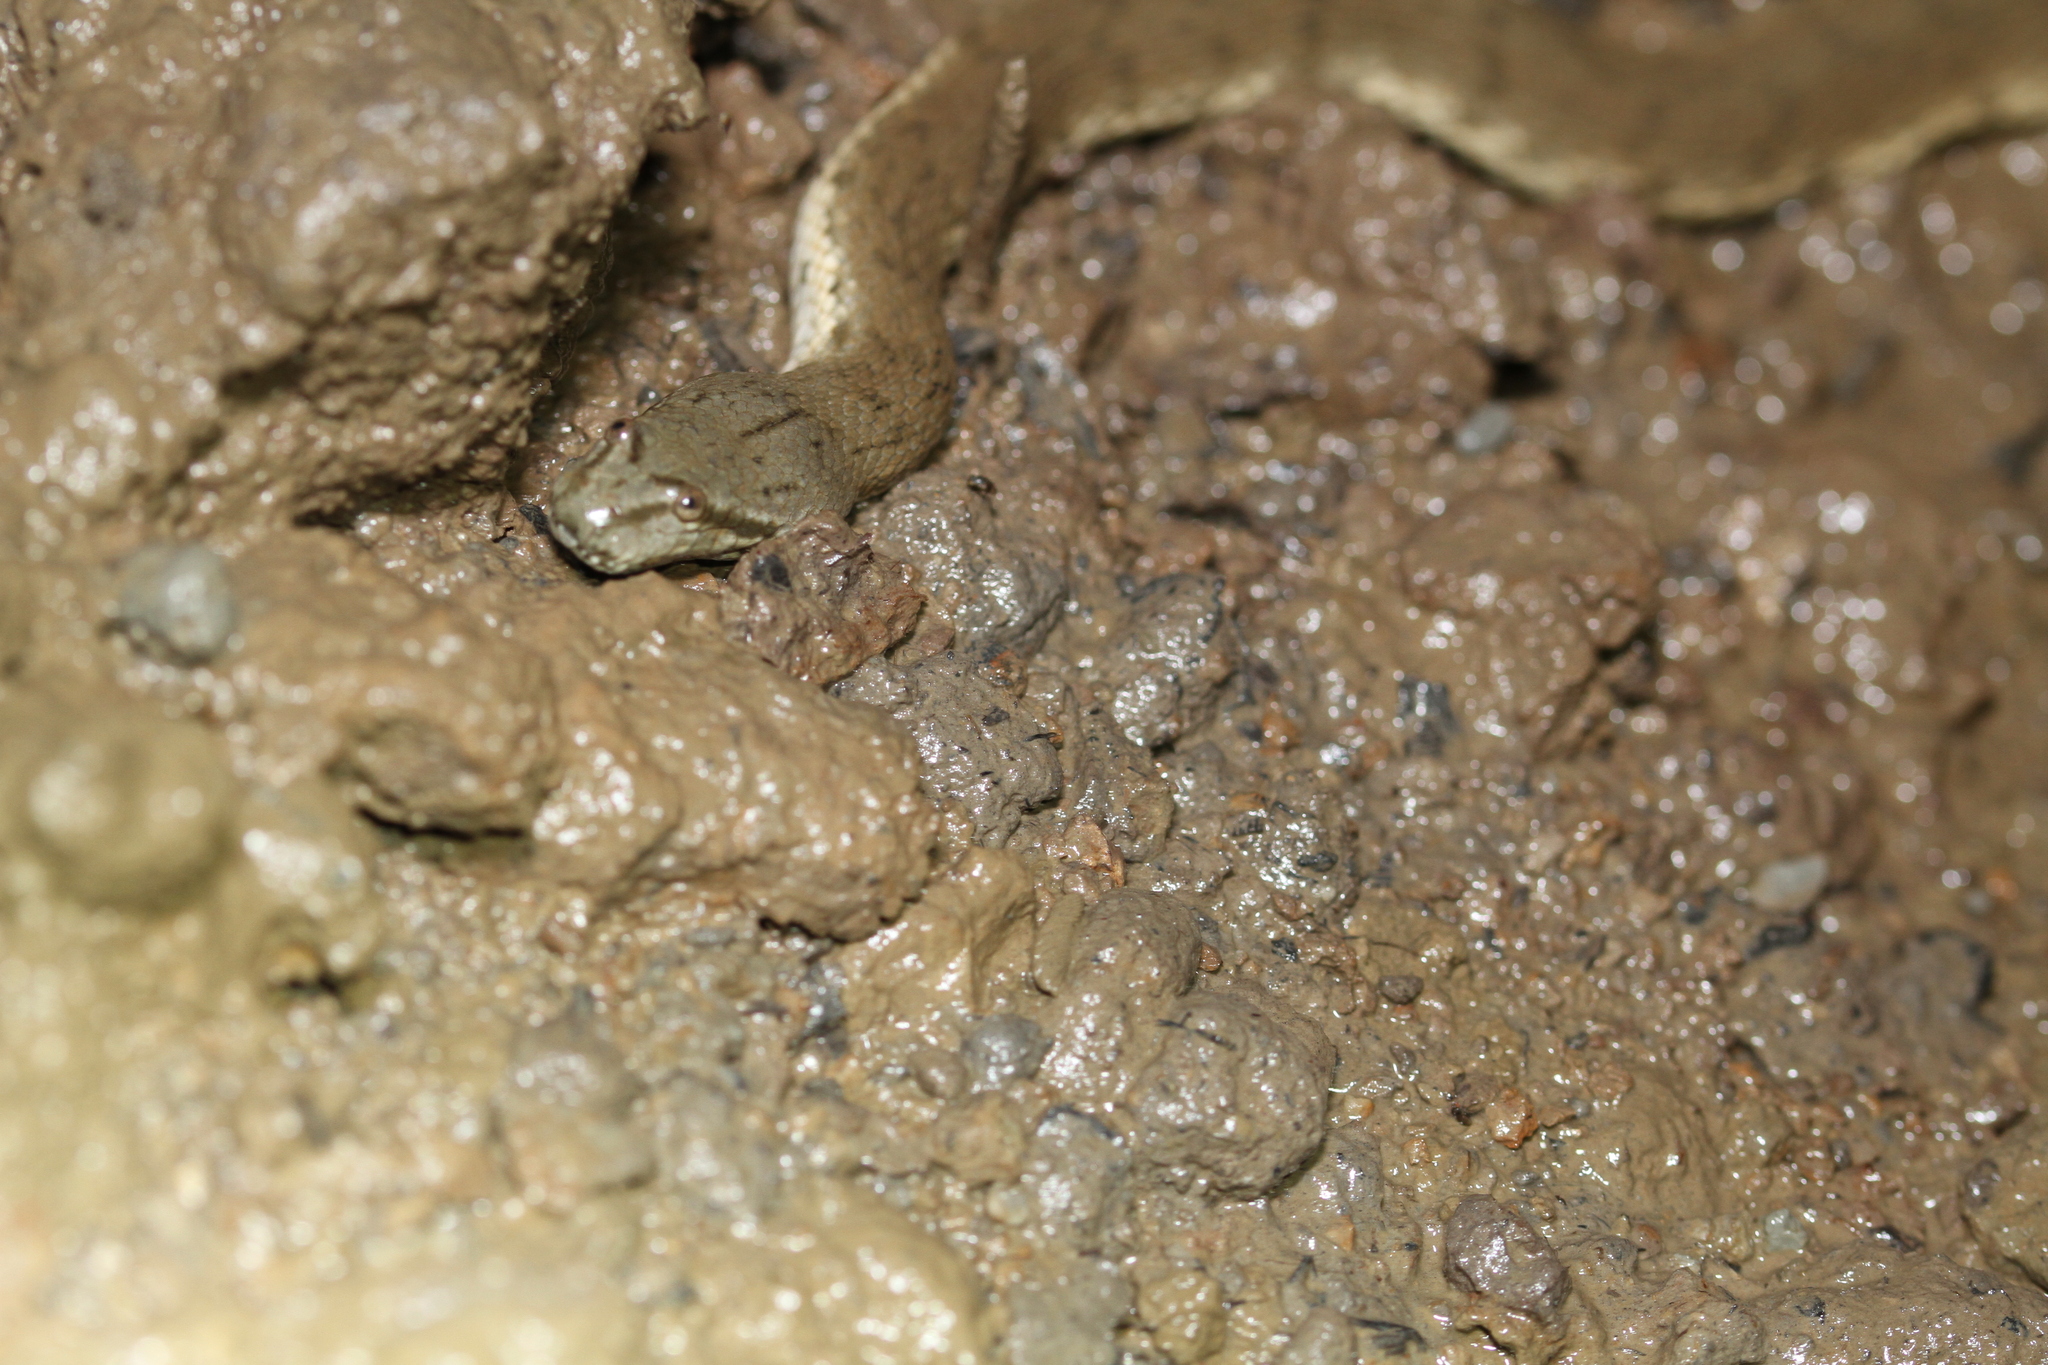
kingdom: Animalia
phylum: Chordata
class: Squamata
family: Homalopsidae
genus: Cerberus
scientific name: Cerberus schneiderii
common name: Southeast asian bockadam
